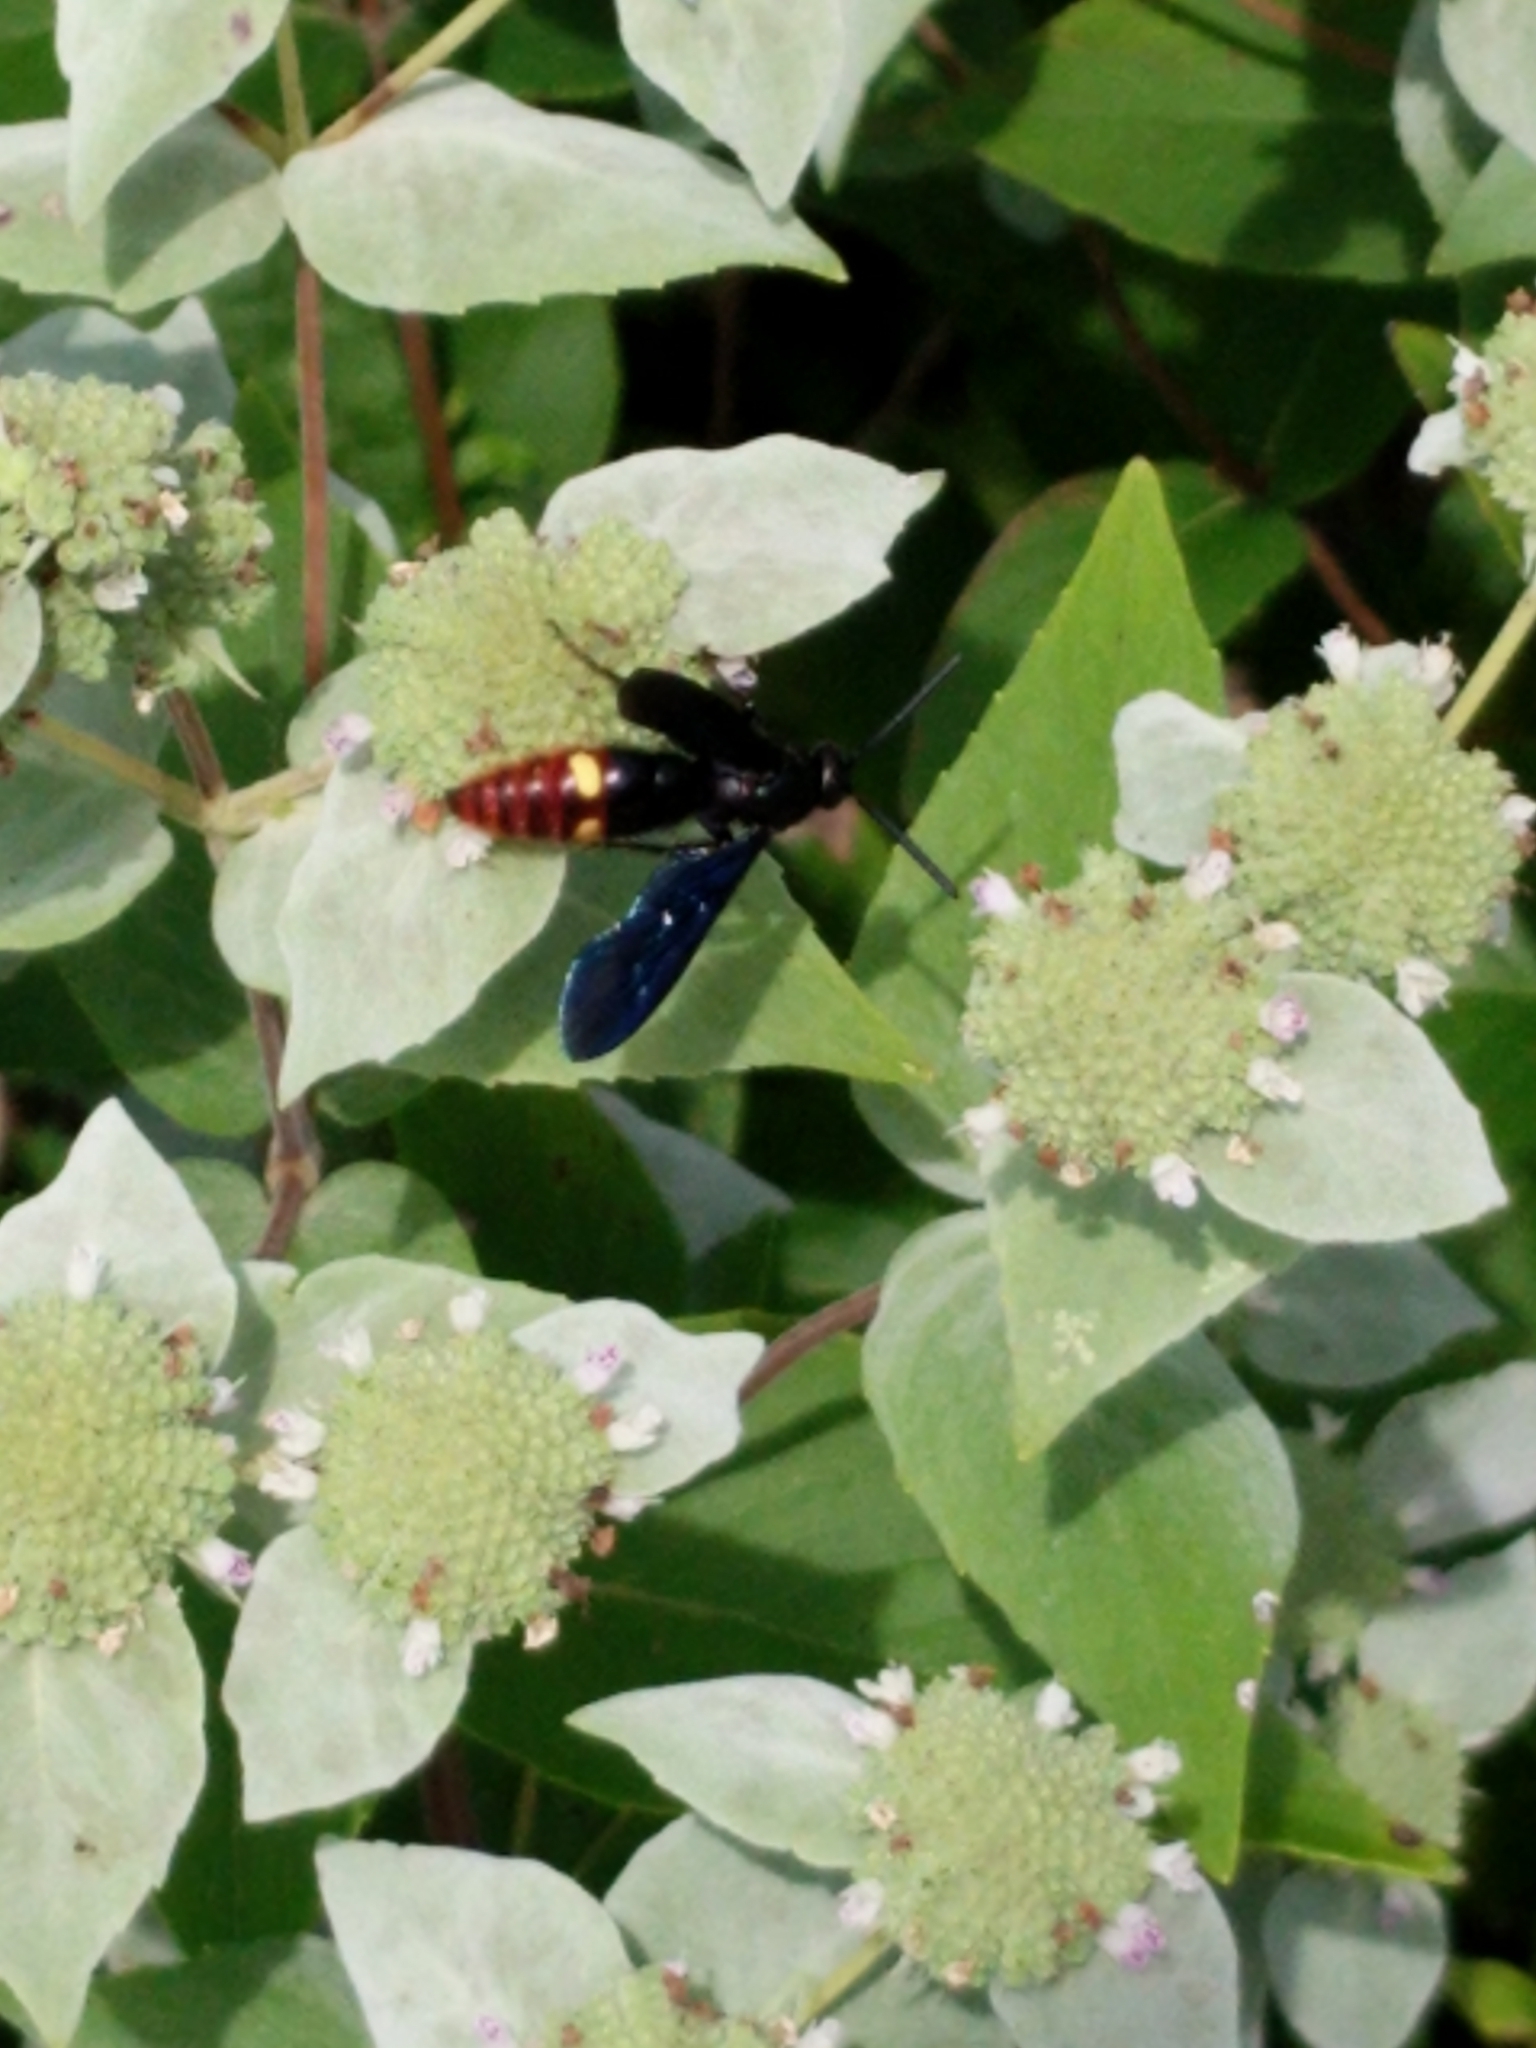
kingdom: Animalia
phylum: Arthropoda
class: Insecta
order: Hymenoptera
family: Scoliidae
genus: Scolia
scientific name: Scolia dubia
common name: Blue-winged scoliid wasp
